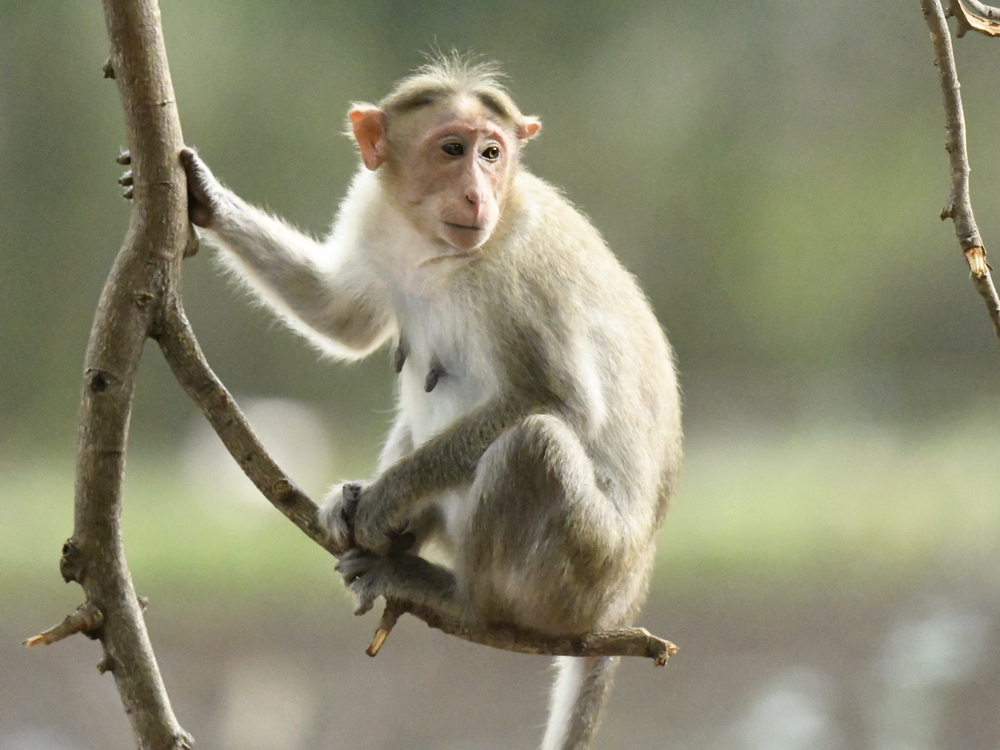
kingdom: Animalia
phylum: Chordata
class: Mammalia
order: Primates
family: Cercopithecidae
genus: Macaca
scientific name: Macaca radiata
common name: Bonnet macaque
